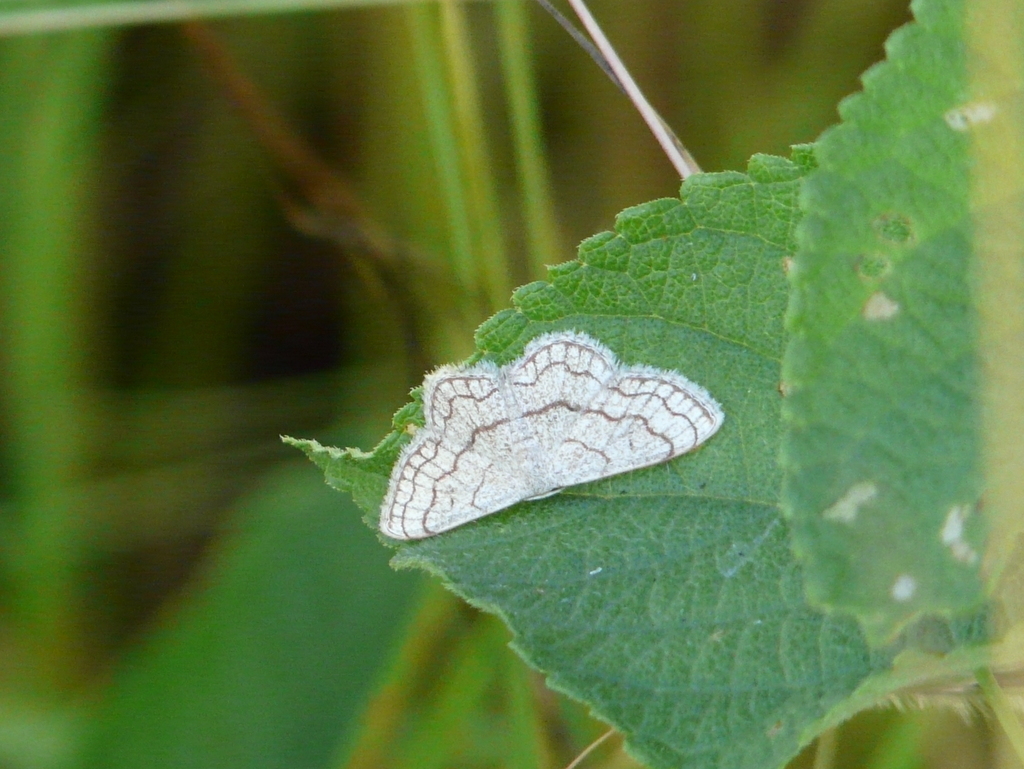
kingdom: Animalia
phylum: Arthropoda
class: Insecta
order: Lepidoptera
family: Geometridae
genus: Scopula
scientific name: Scopula sinnaria
